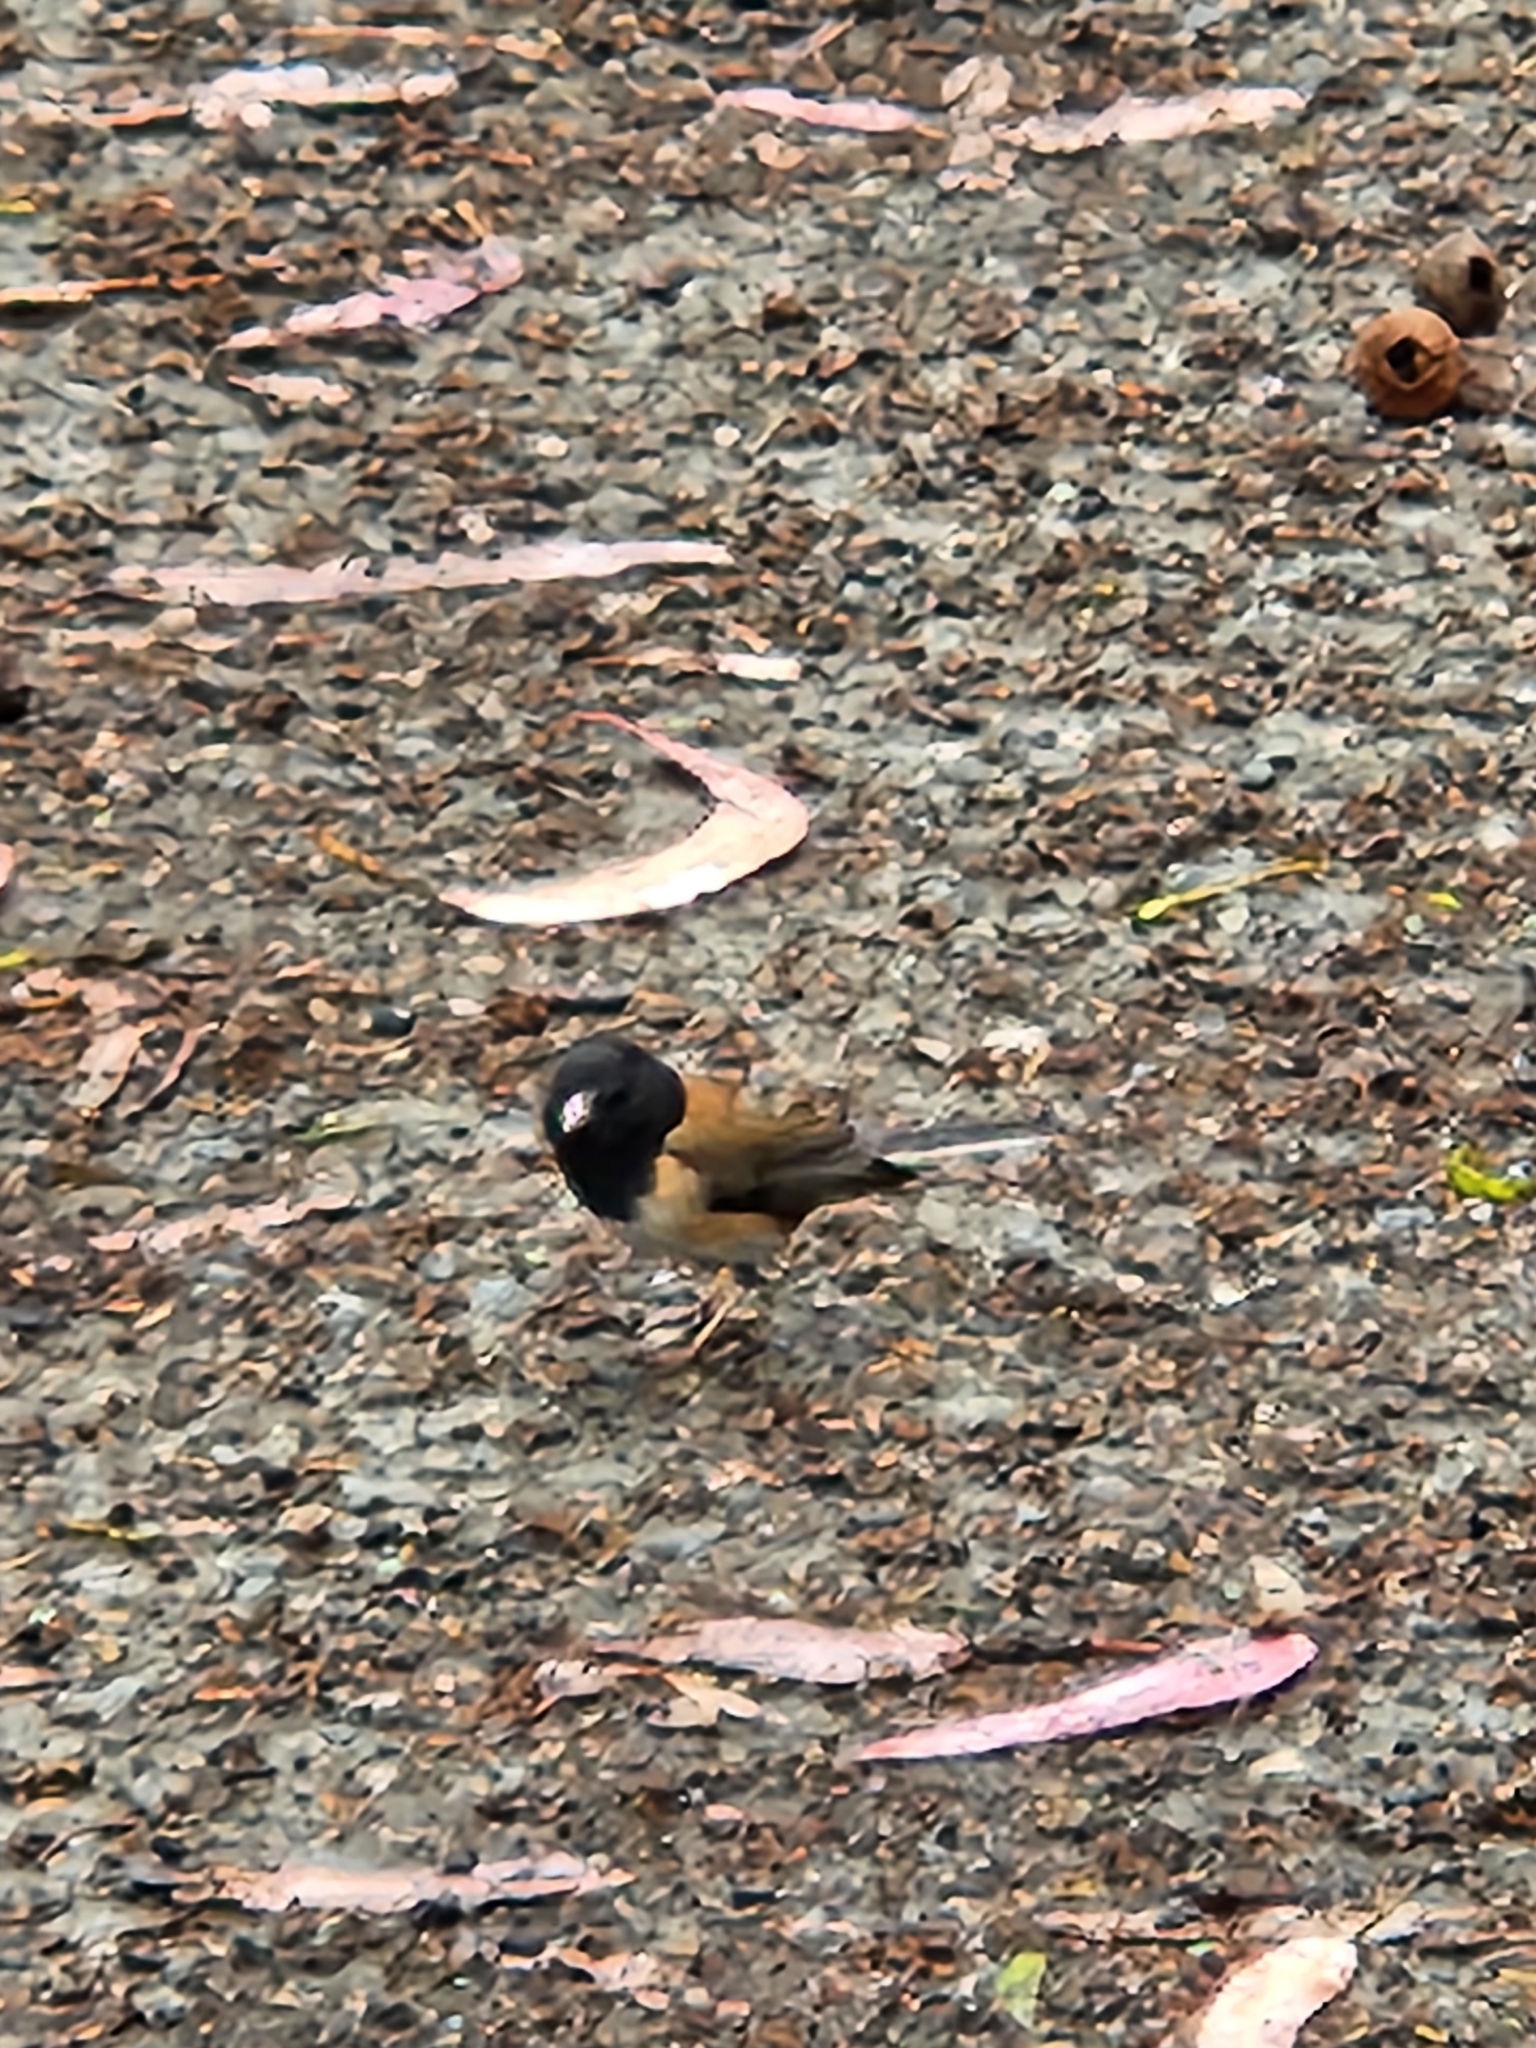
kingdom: Animalia
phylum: Chordata
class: Aves
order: Passeriformes
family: Passerellidae
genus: Junco
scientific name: Junco hyemalis
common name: Dark-eyed junco
